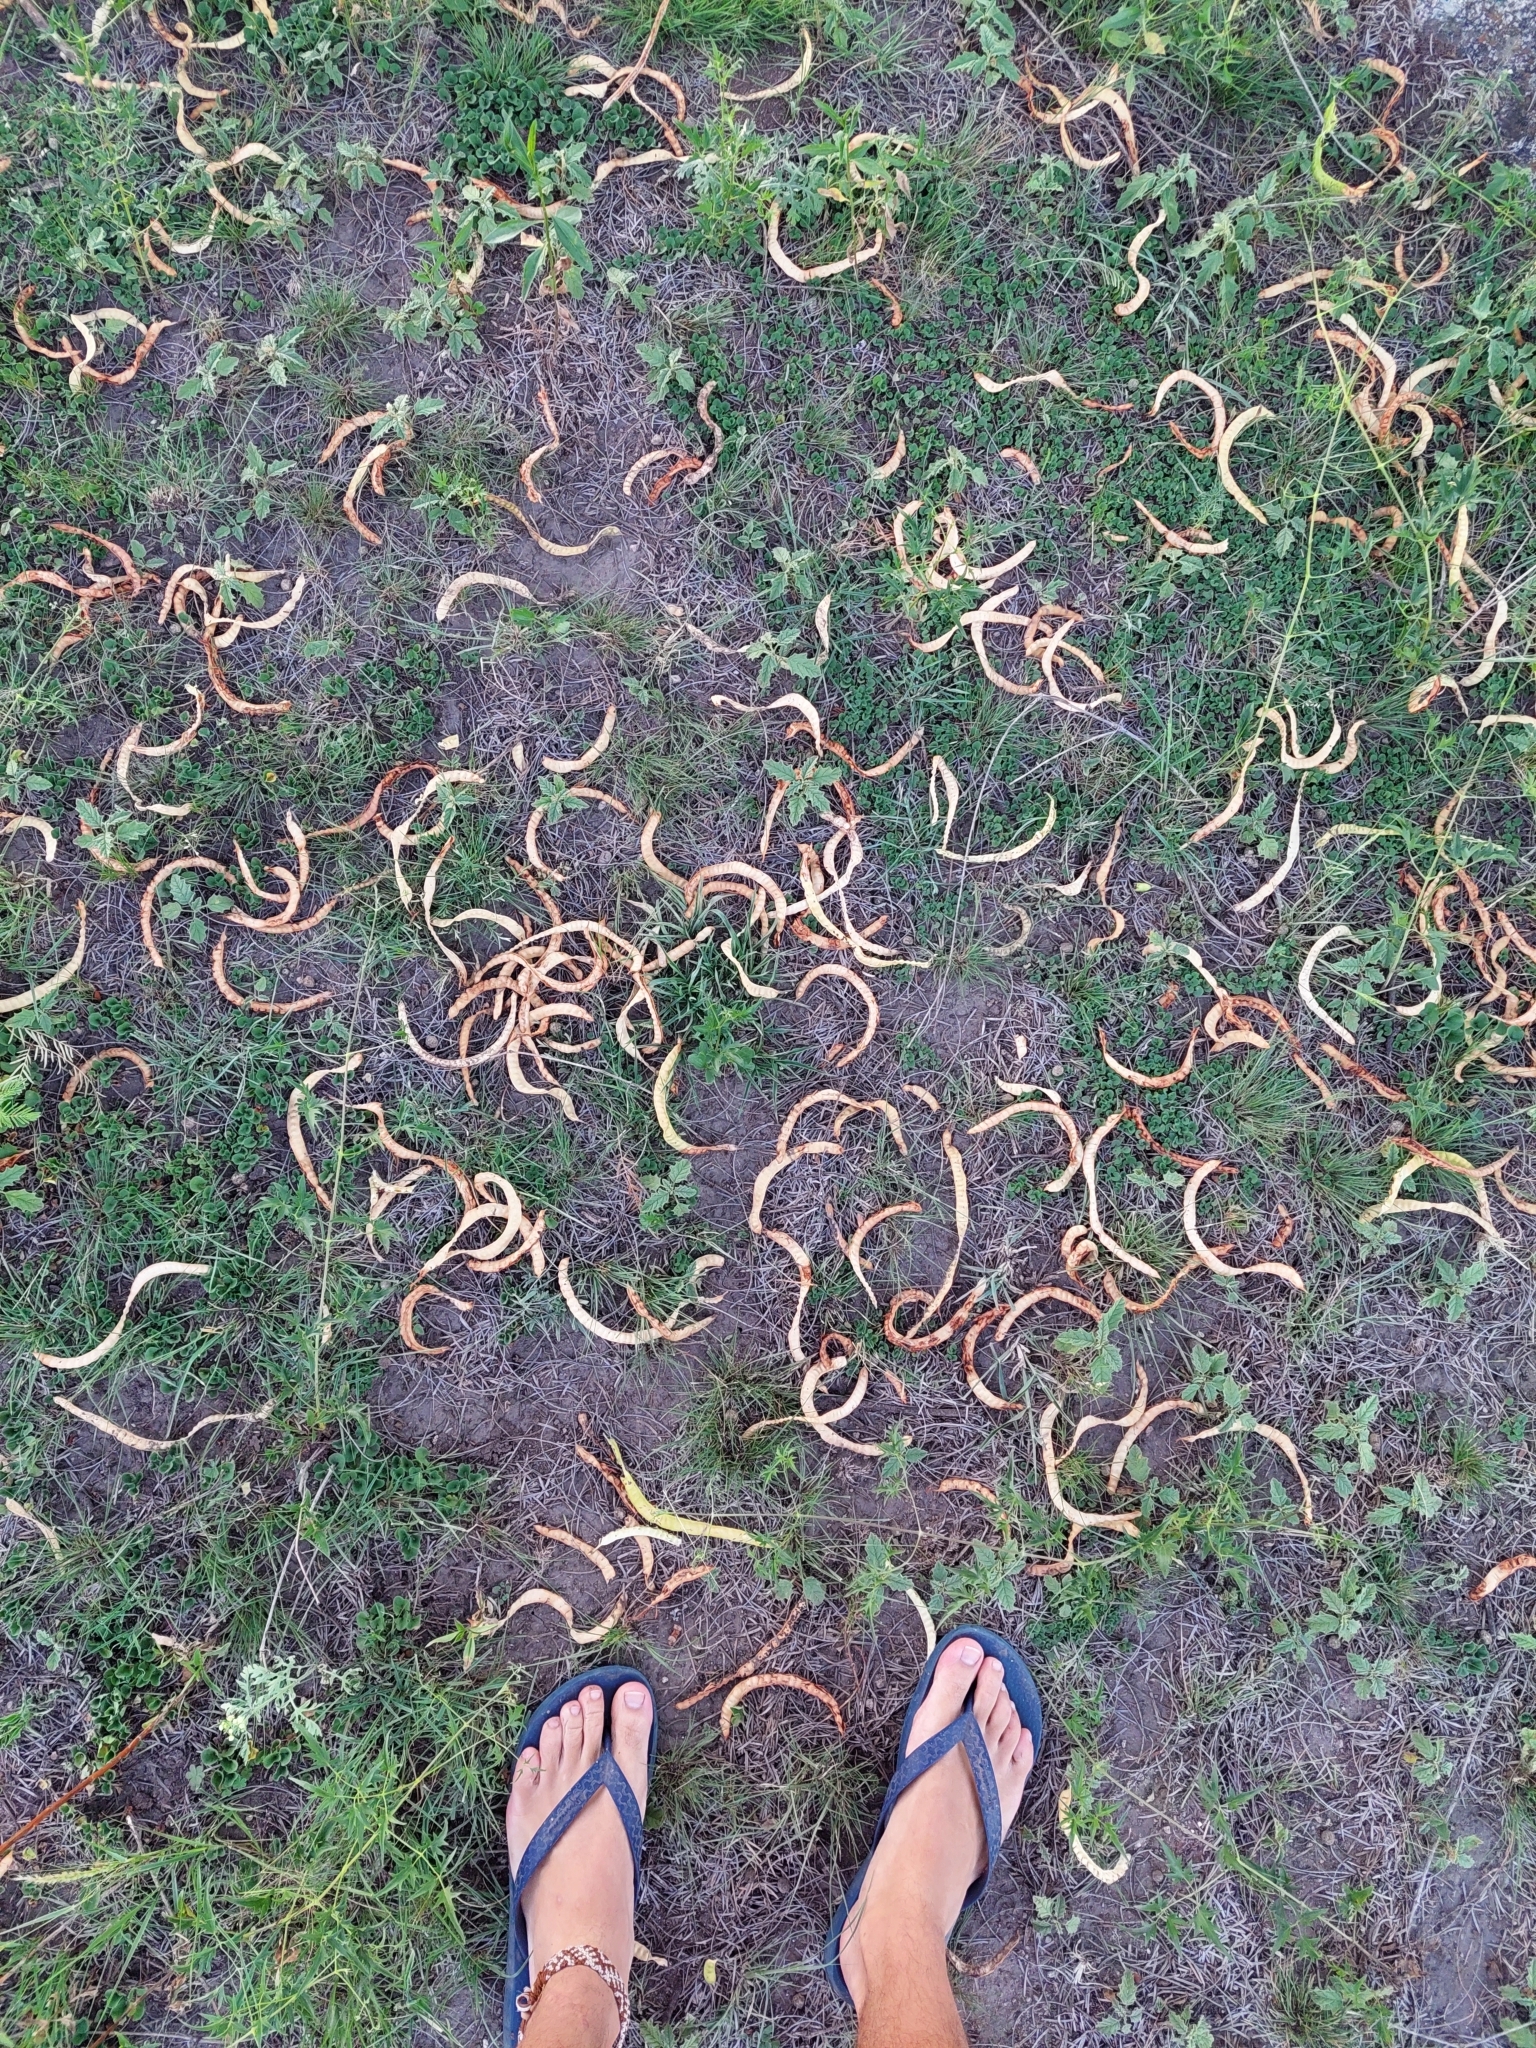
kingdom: Plantae
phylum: Tracheophyta
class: Magnoliopsida
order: Fabales
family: Fabaceae
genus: Prosopis
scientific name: Prosopis chilensis
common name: Chilean algarrobo
